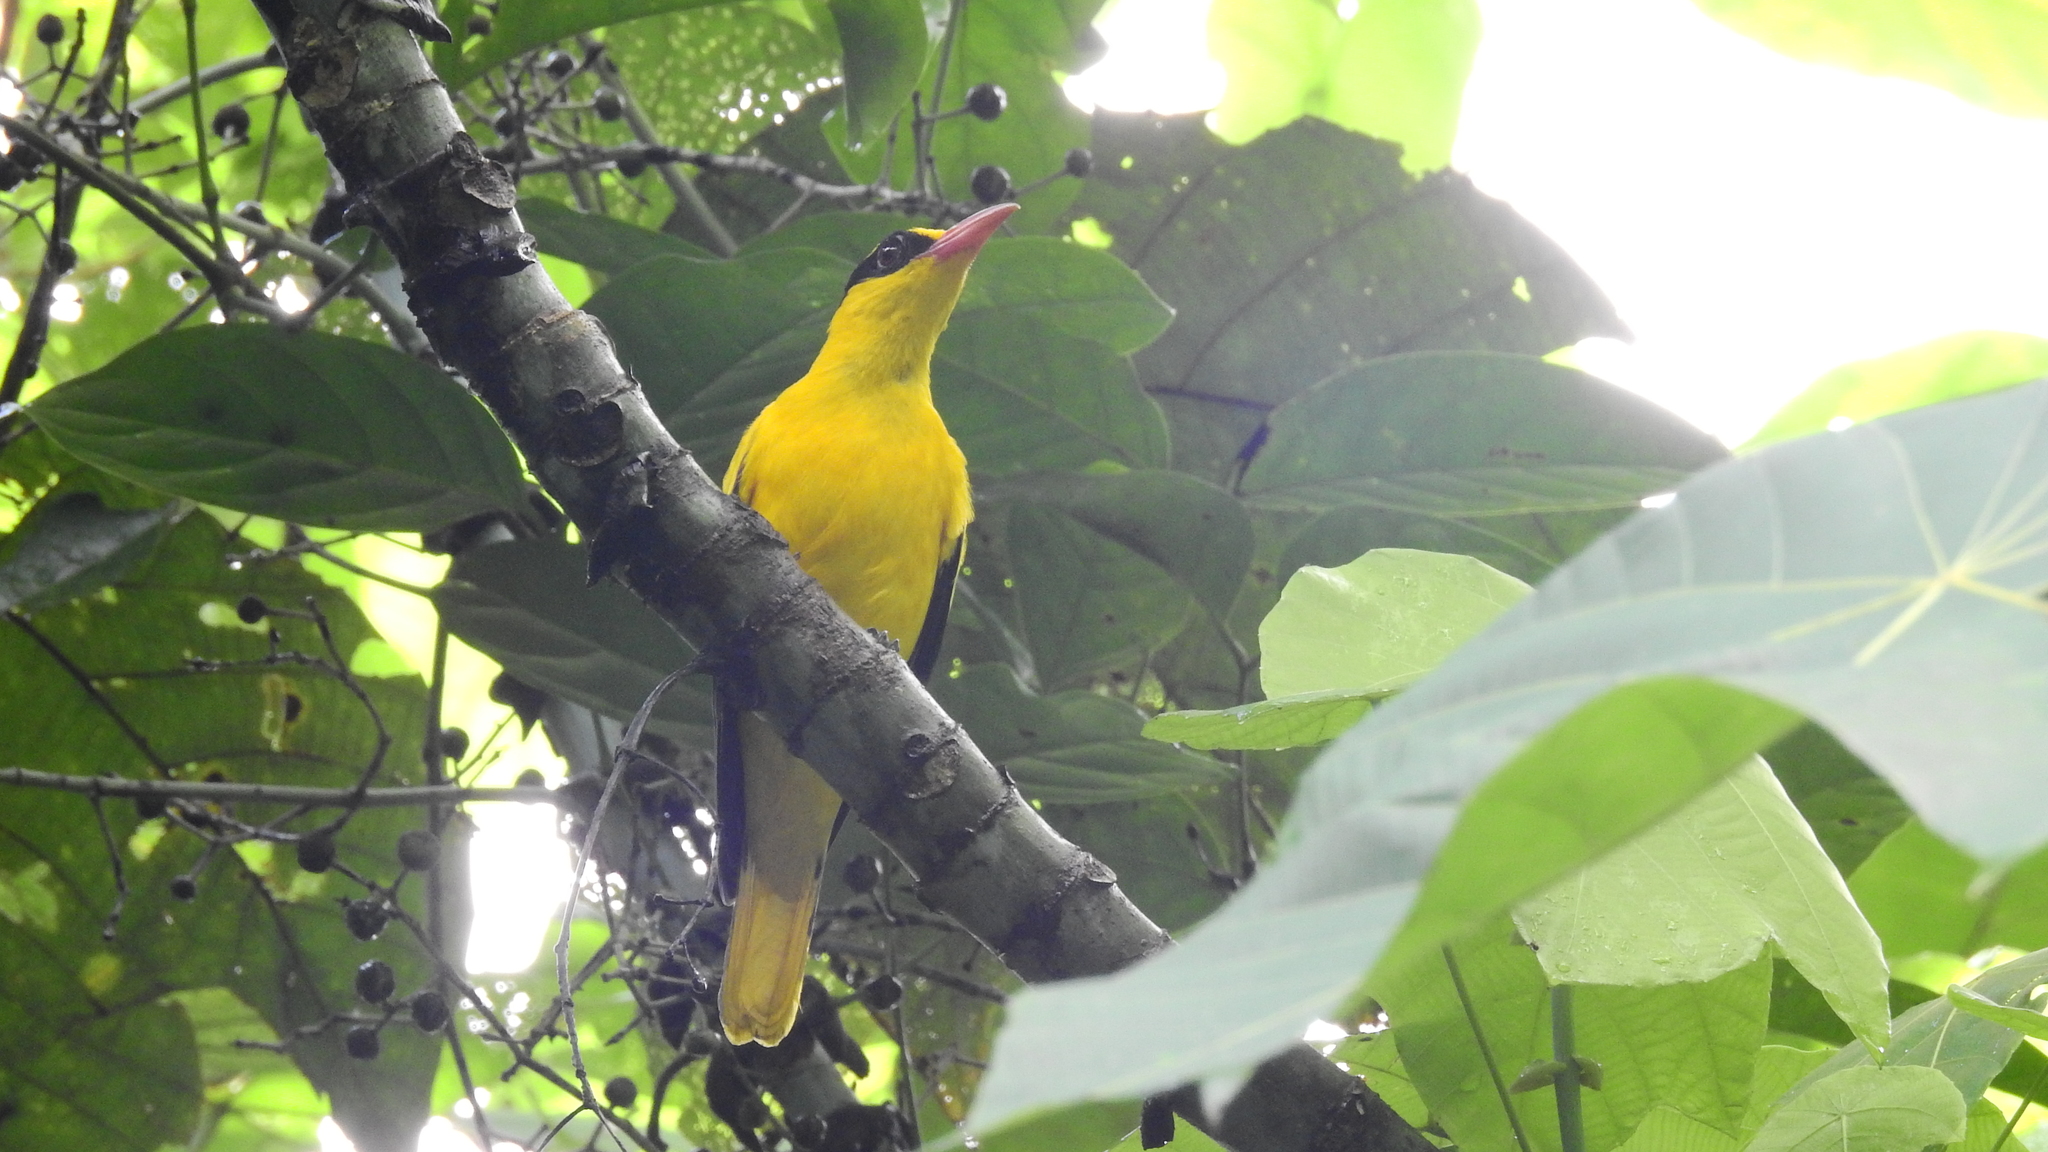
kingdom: Animalia
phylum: Chordata
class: Aves
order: Passeriformes
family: Oriolidae
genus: Oriolus
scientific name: Oriolus chinensis
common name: Black-naped oriole
